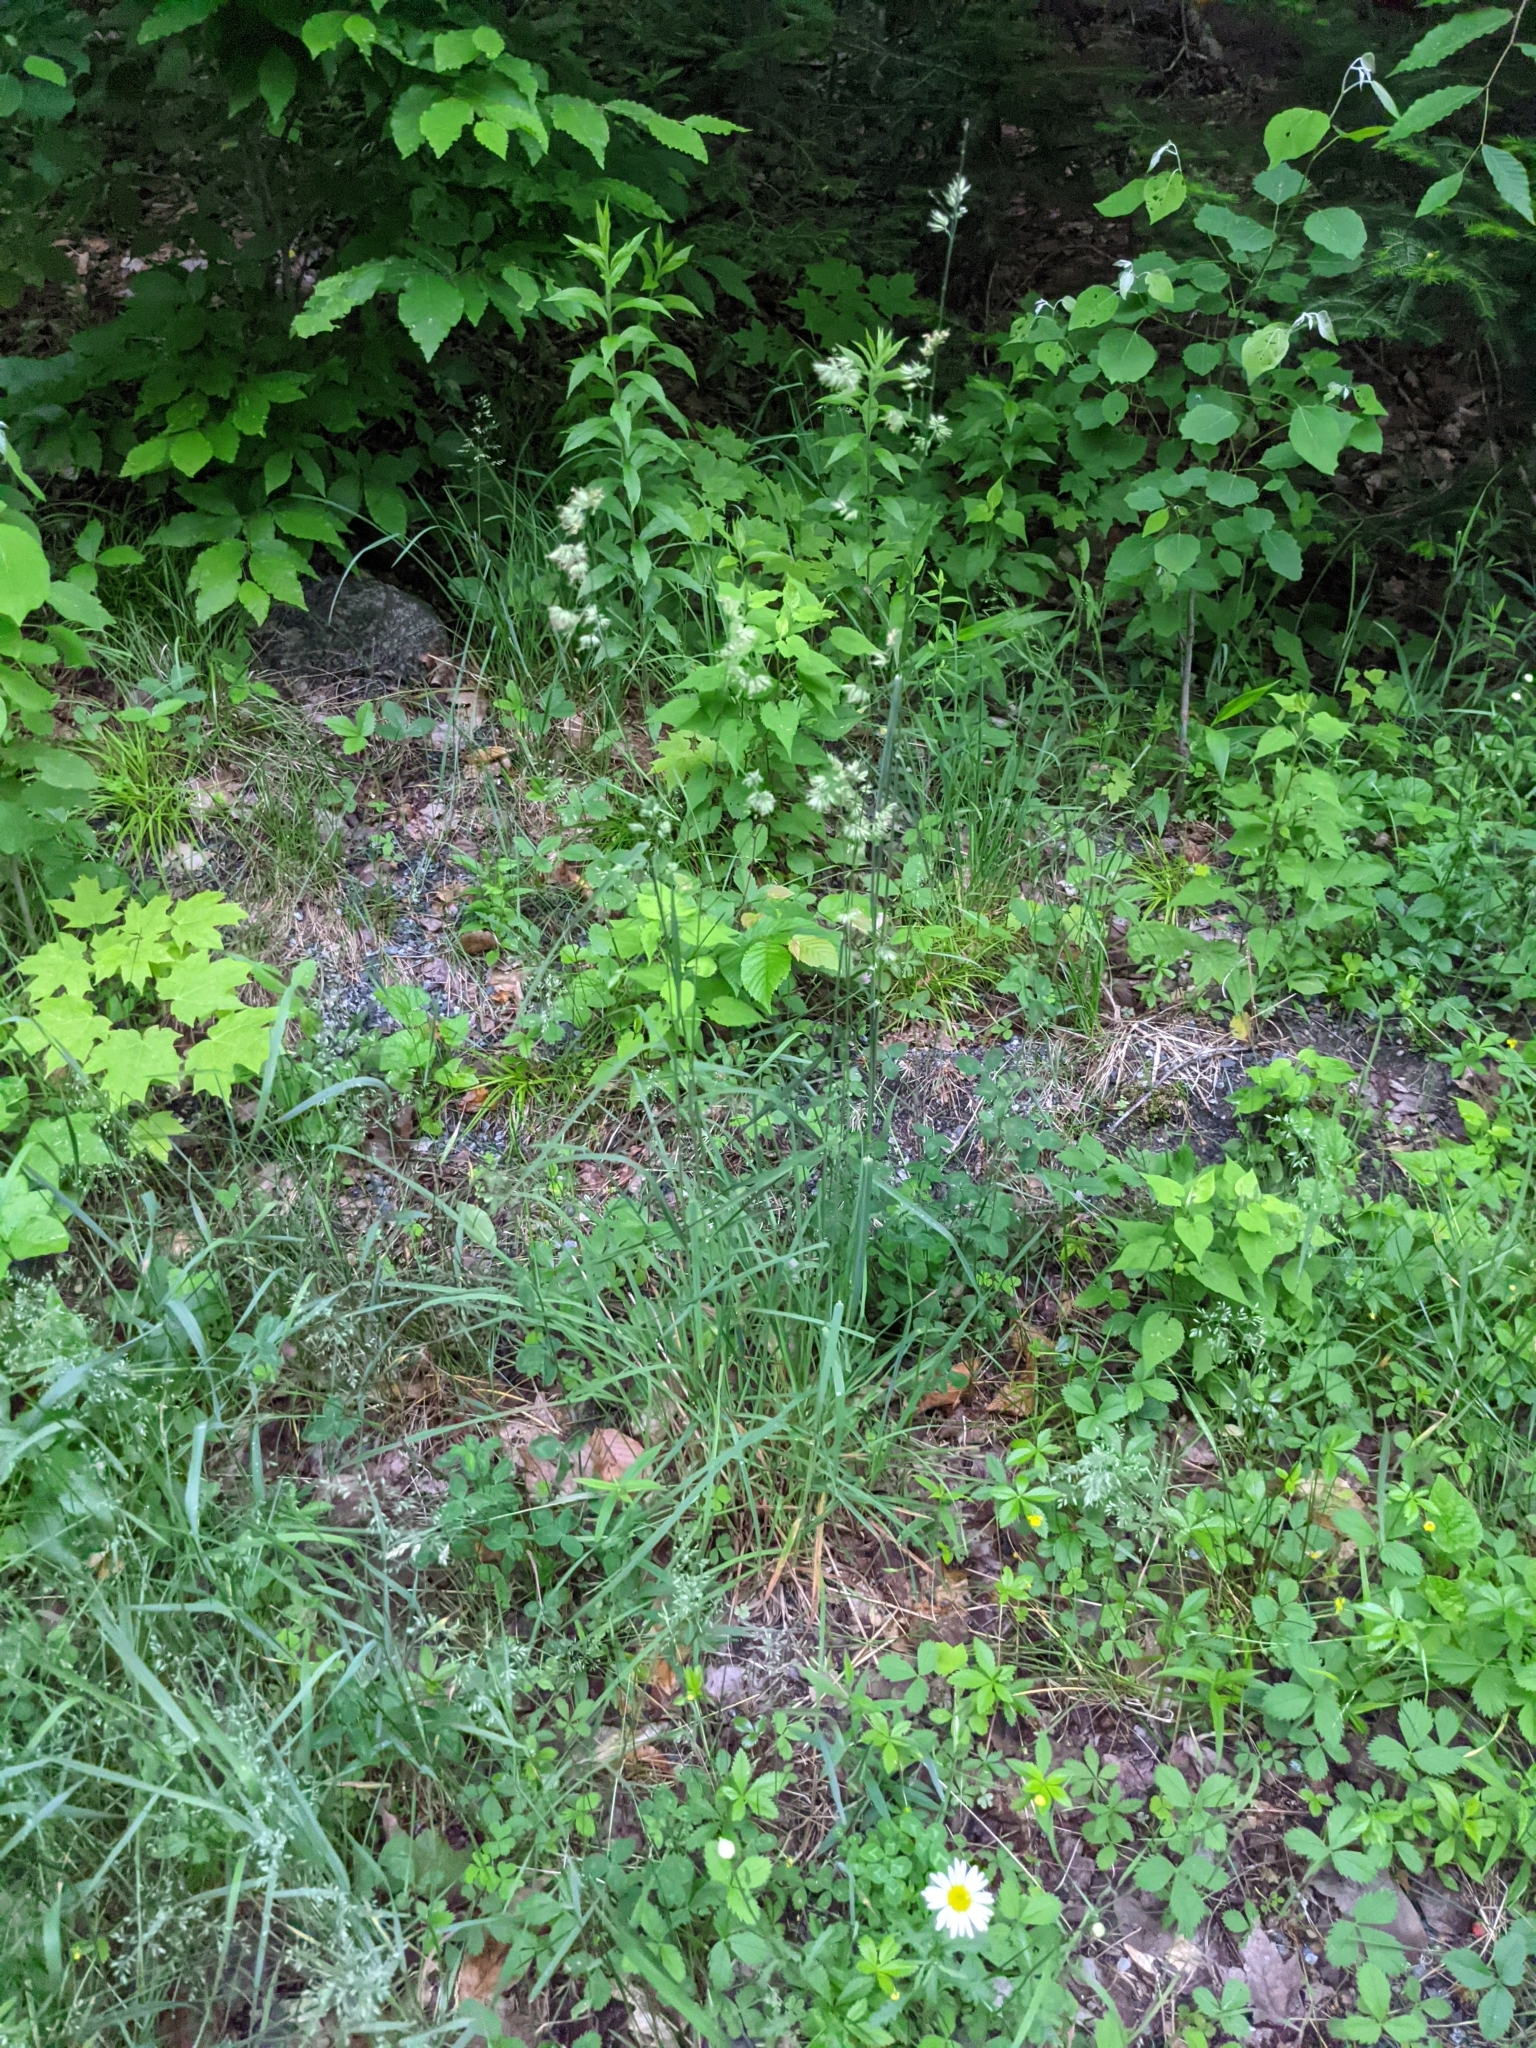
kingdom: Plantae
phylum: Tracheophyta
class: Liliopsida
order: Poales
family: Poaceae
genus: Dactylis
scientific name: Dactylis glomerata
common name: Orchardgrass
